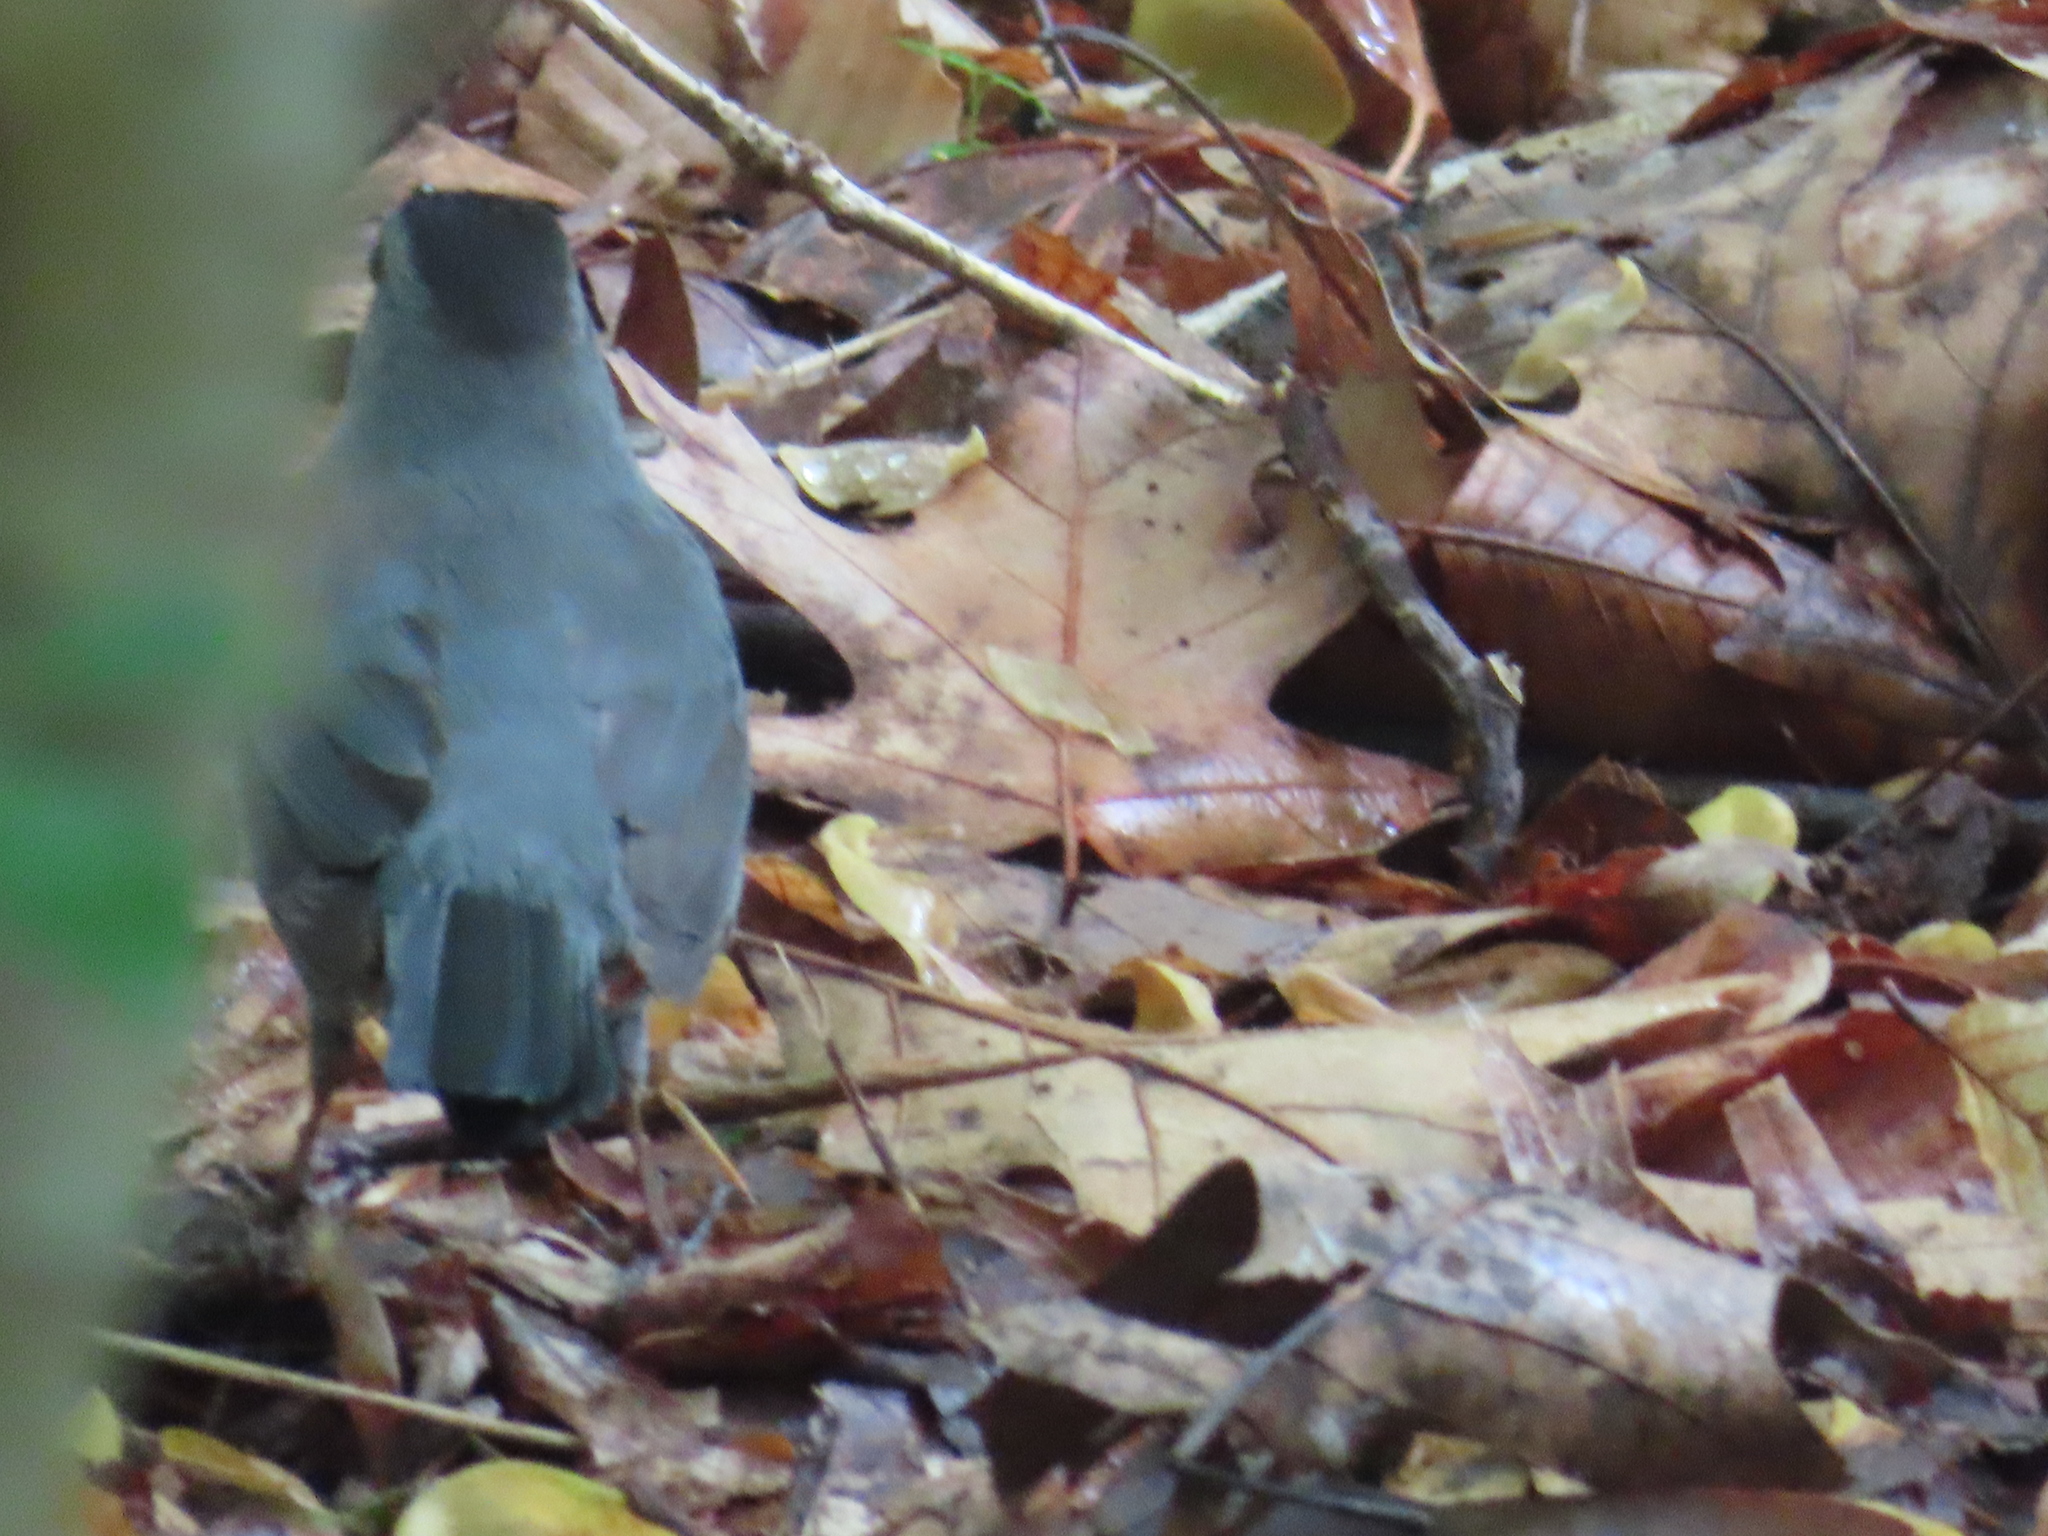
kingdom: Animalia
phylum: Chordata
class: Aves
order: Passeriformes
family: Mimidae
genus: Dumetella
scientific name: Dumetella carolinensis
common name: Gray catbird
